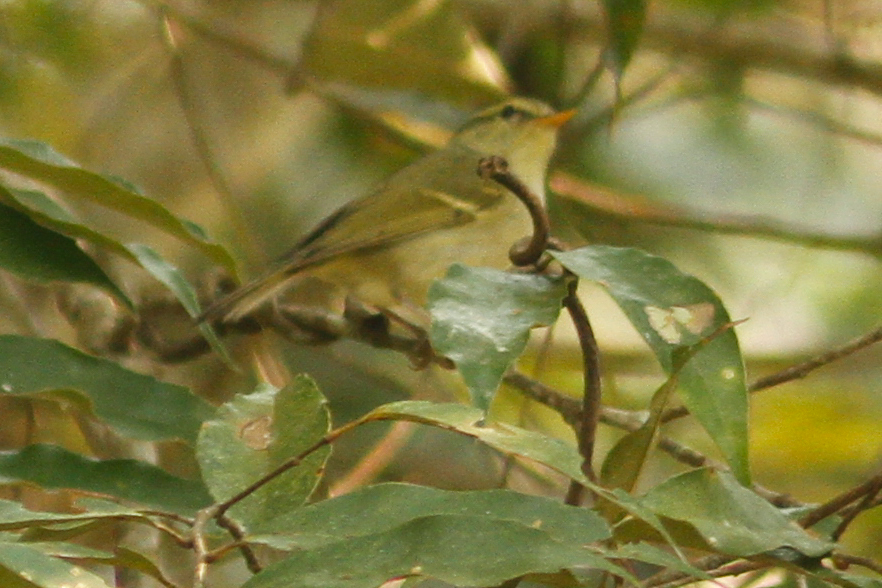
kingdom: Animalia
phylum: Chordata
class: Aves
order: Passeriformes
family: Phylloscopidae
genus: Phylloscopus
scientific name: Phylloscopus
